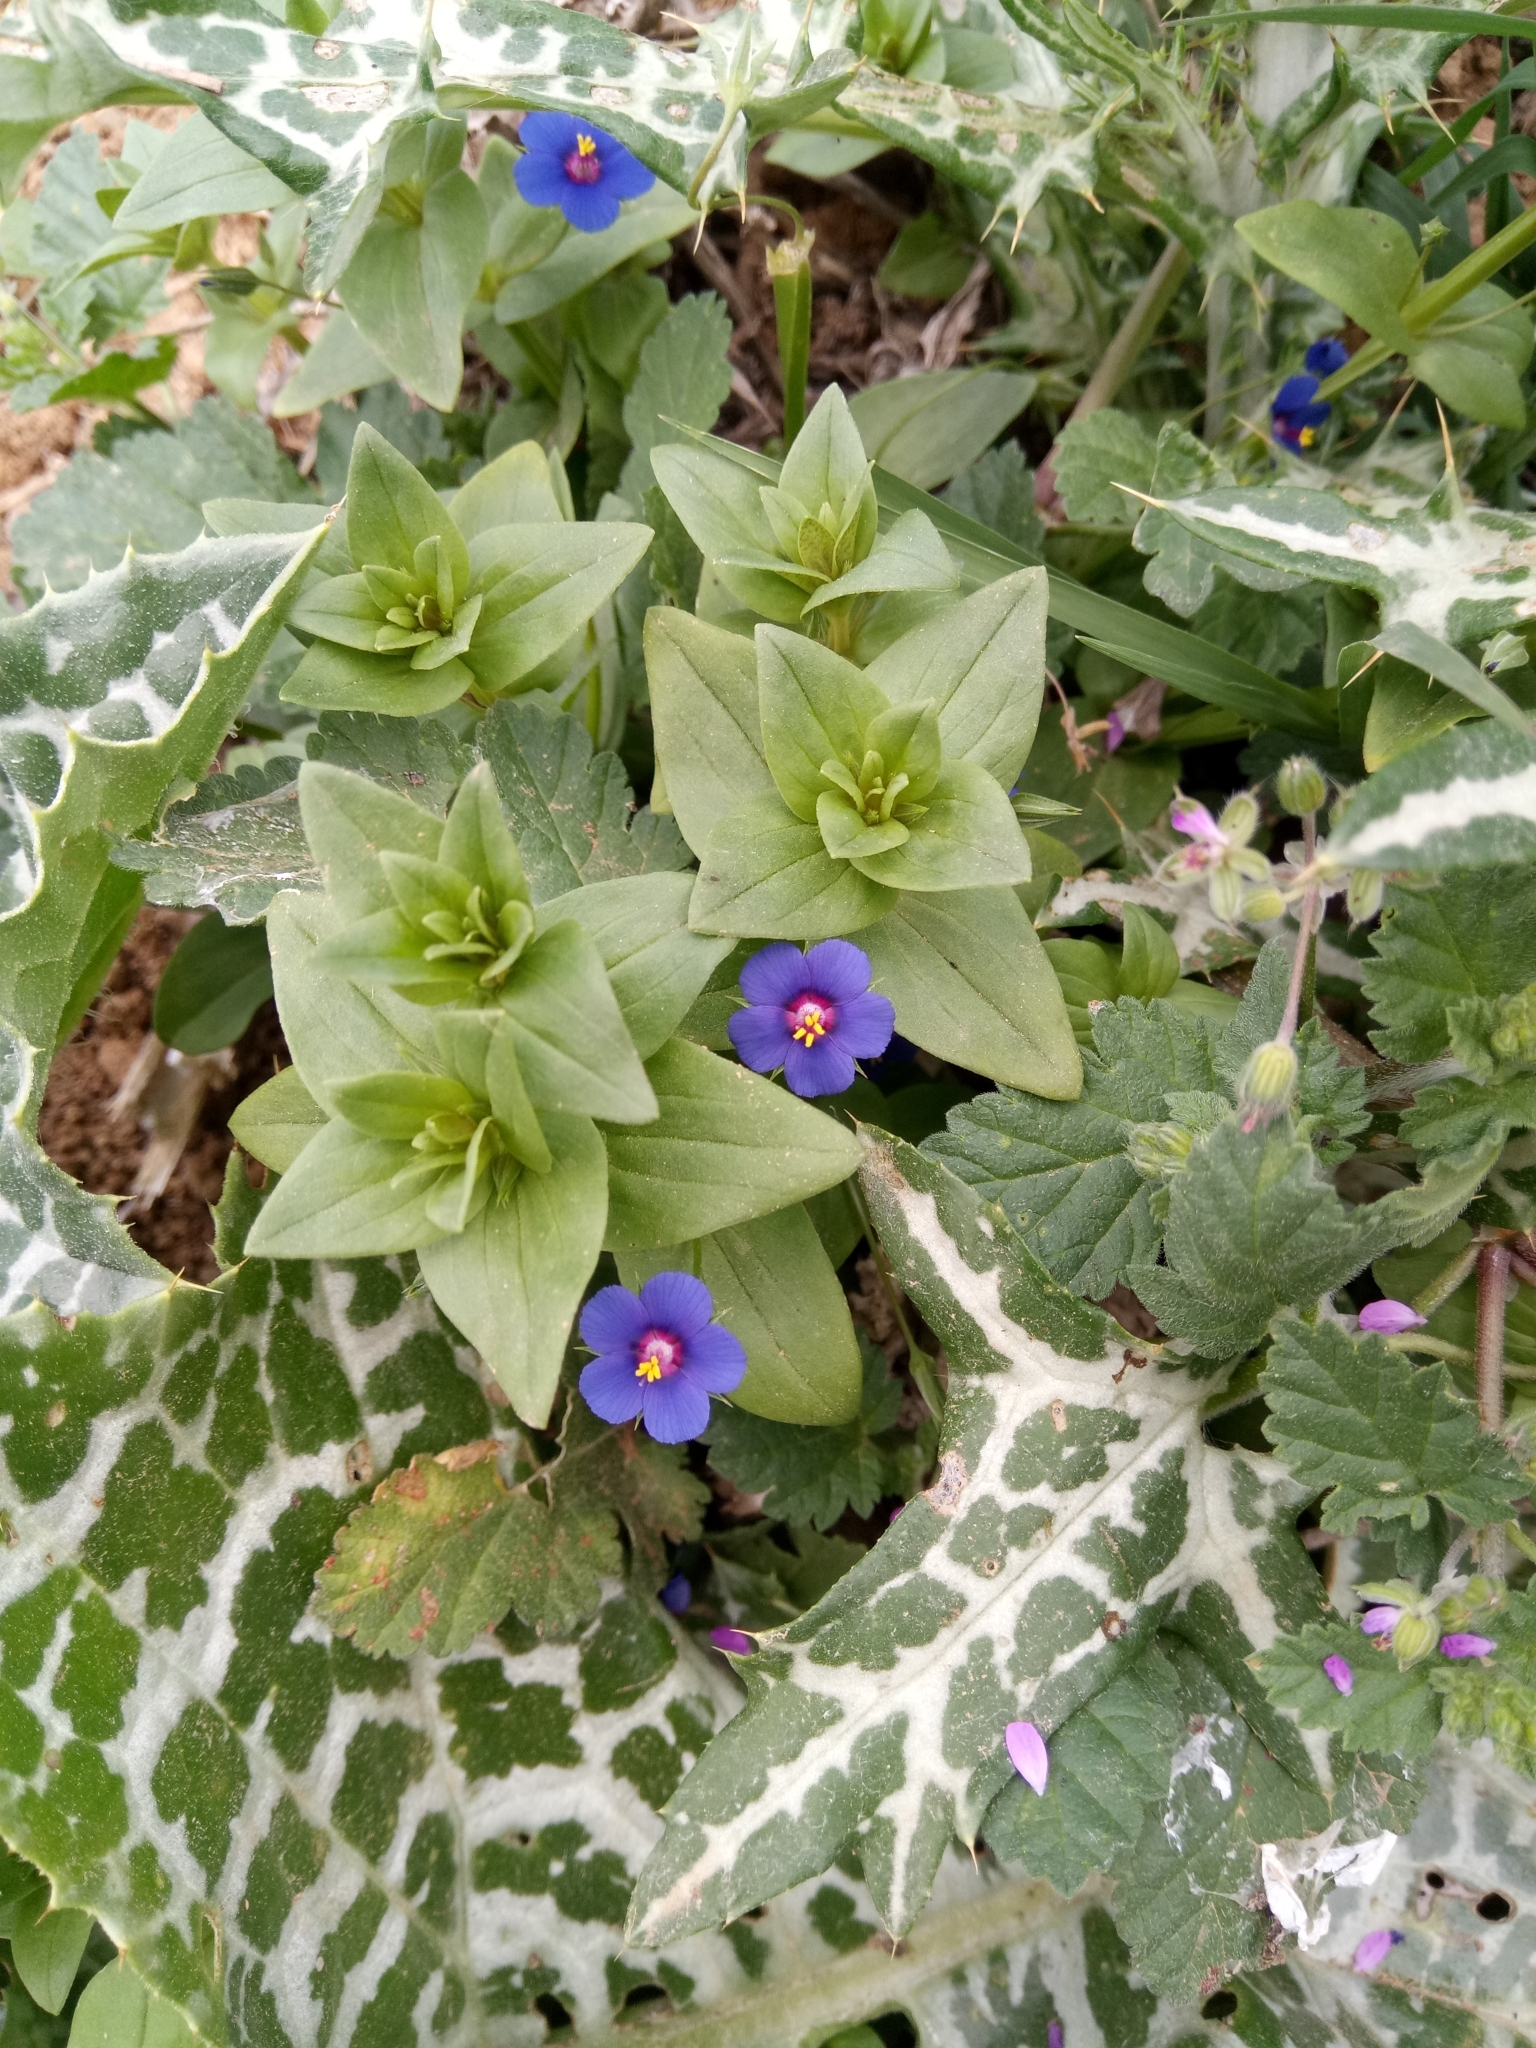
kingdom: Plantae
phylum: Tracheophyta
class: Magnoliopsida
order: Ericales
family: Primulaceae
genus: Lysimachia
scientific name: Lysimachia loeflingii
